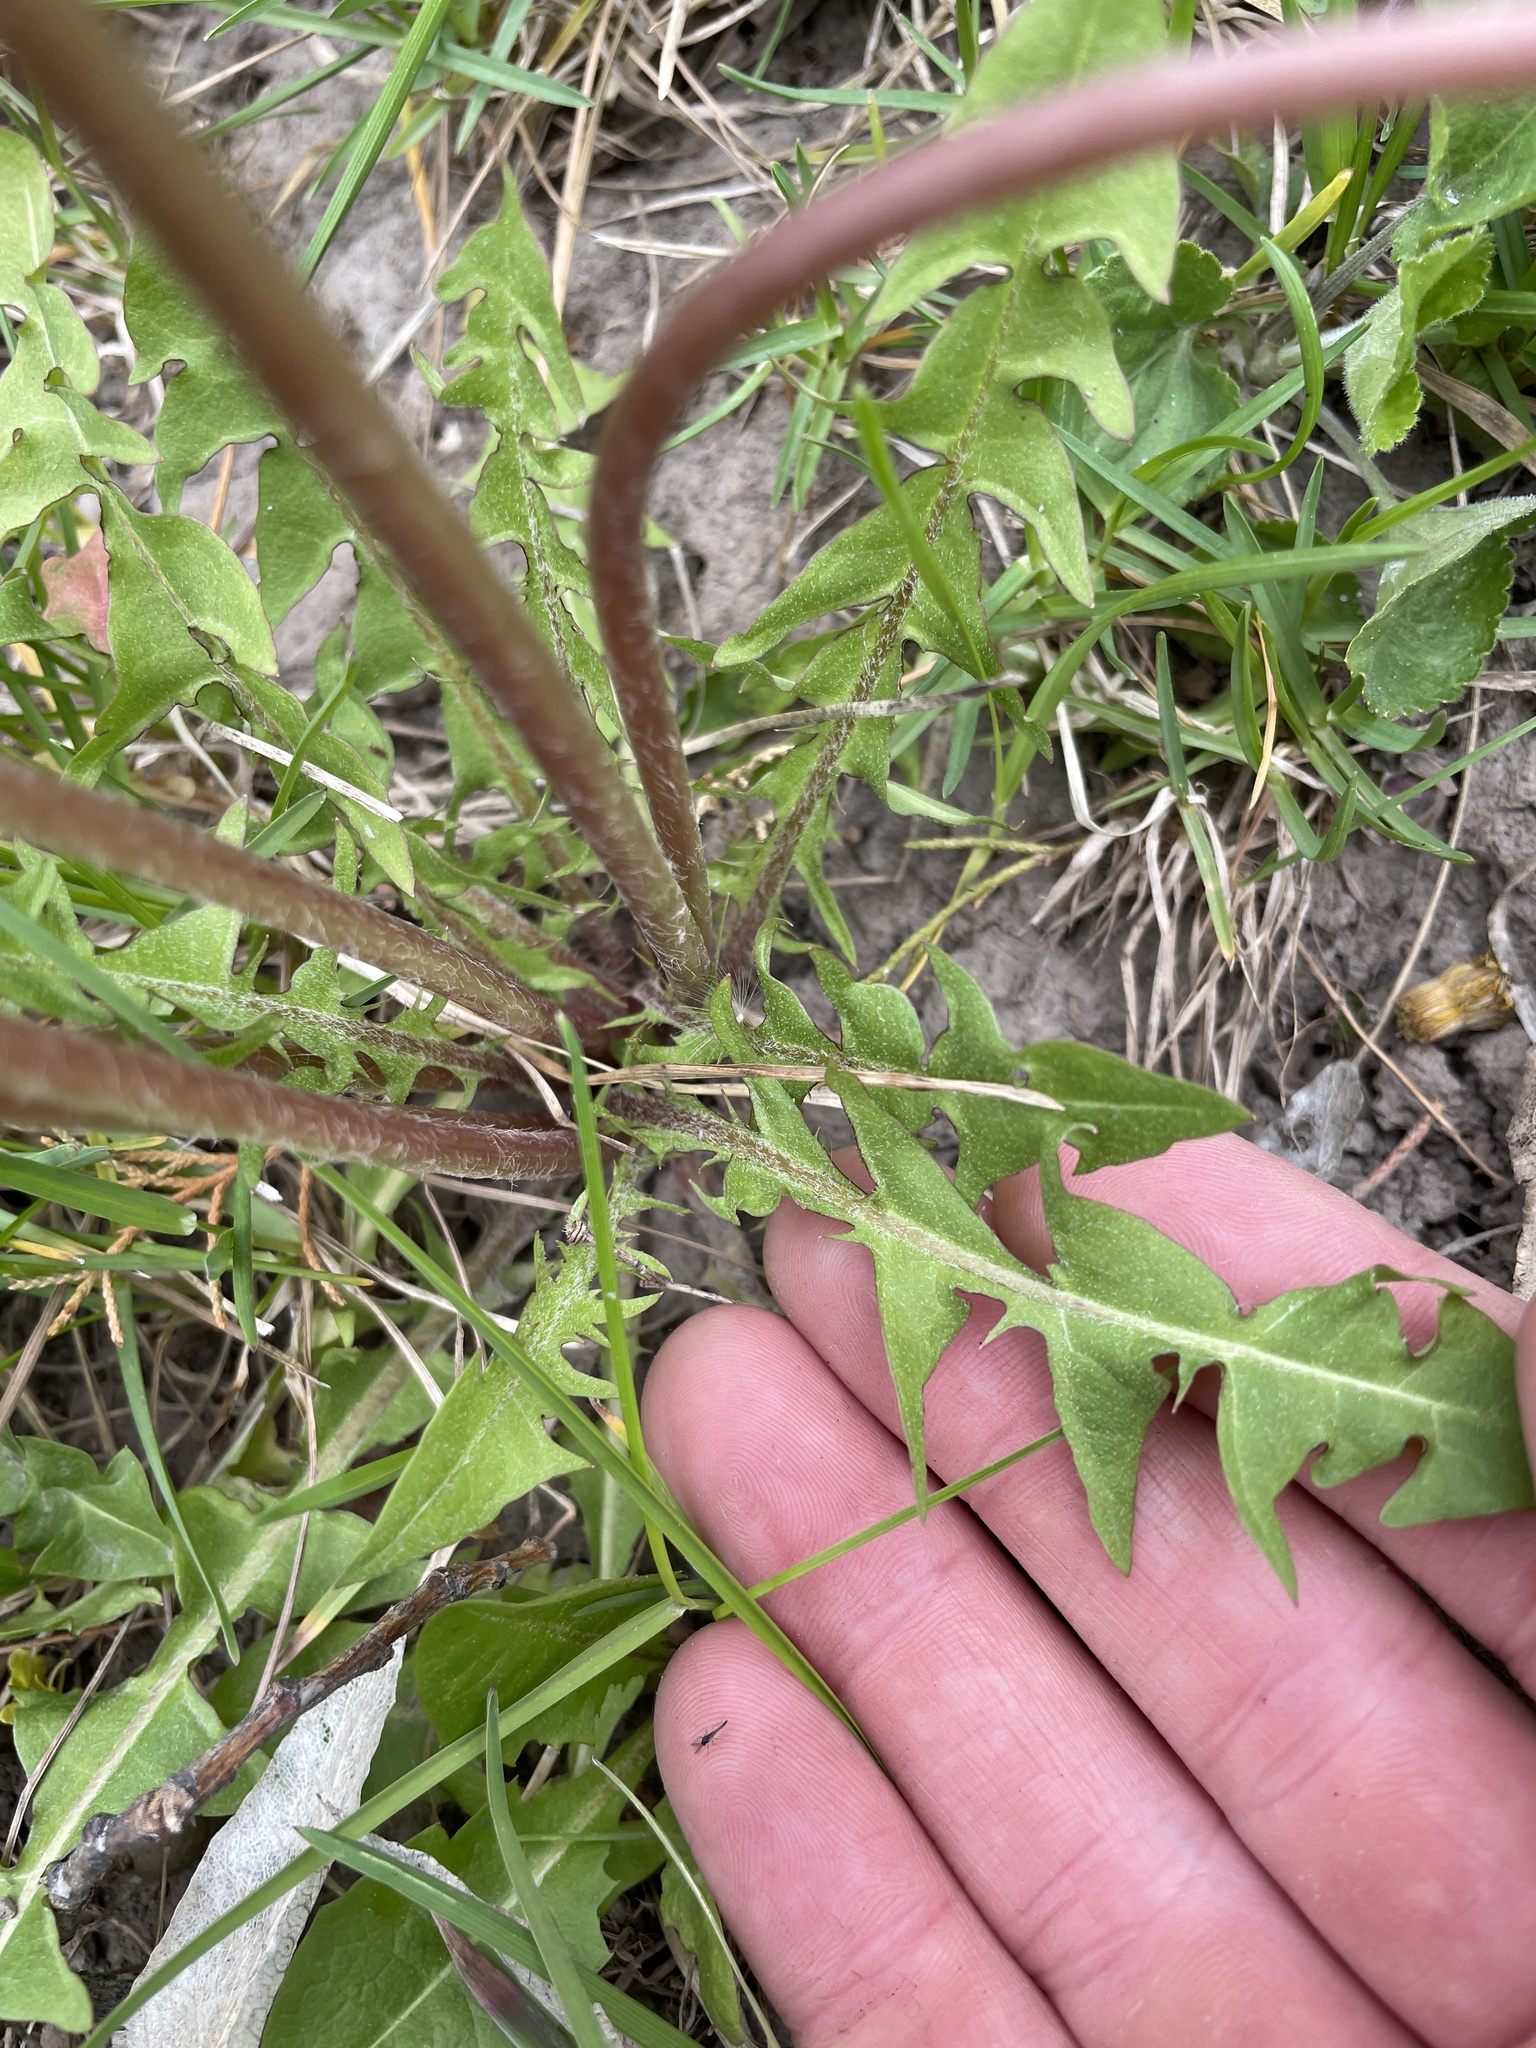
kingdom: Plantae
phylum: Tracheophyta
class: Magnoliopsida
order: Asterales
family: Asteraceae
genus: Taraxacum
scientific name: Taraxacum officinale
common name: Common dandelion
